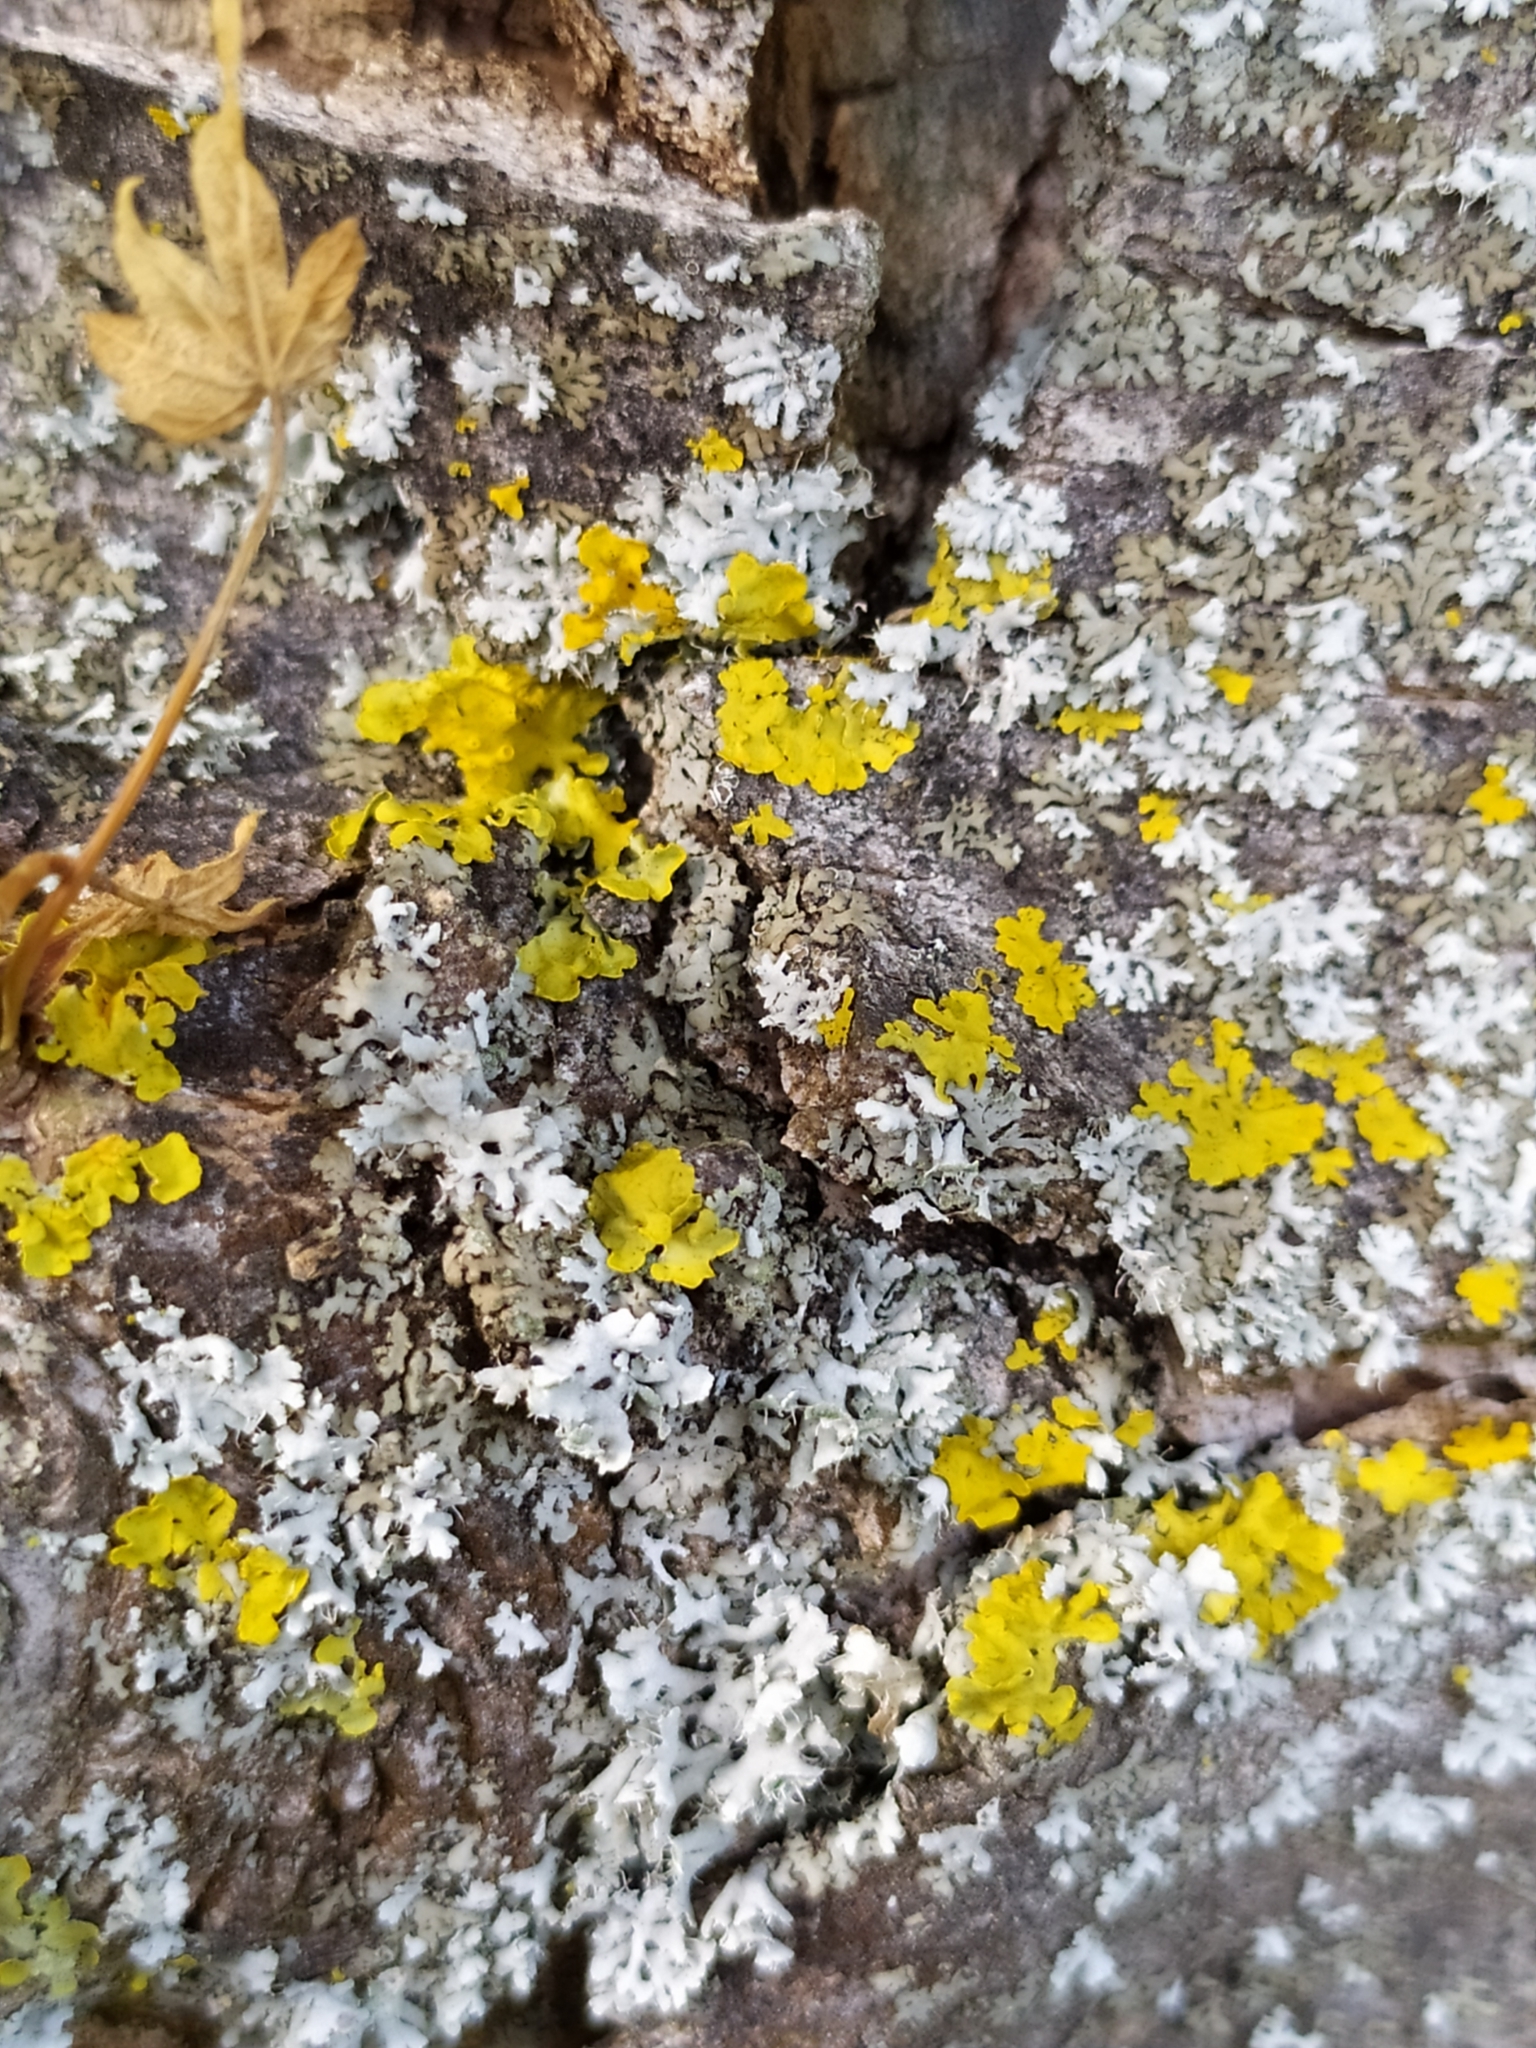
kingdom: Fungi
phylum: Ascomycota
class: Lecanoromycetes
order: Teloschistales
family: Teloschistaceae
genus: Xanthoria
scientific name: Xanthoria parietina
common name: Common orange lichen
